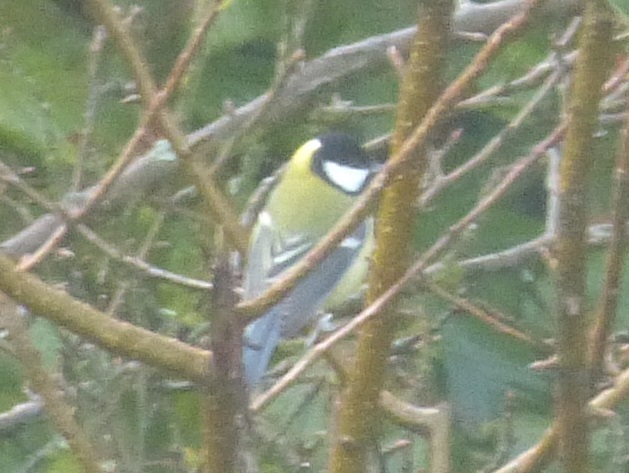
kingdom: Animalia
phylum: Chordata
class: Aves
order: Passeriformes
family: Paridae
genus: Parus
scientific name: Parus major
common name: Great tit
